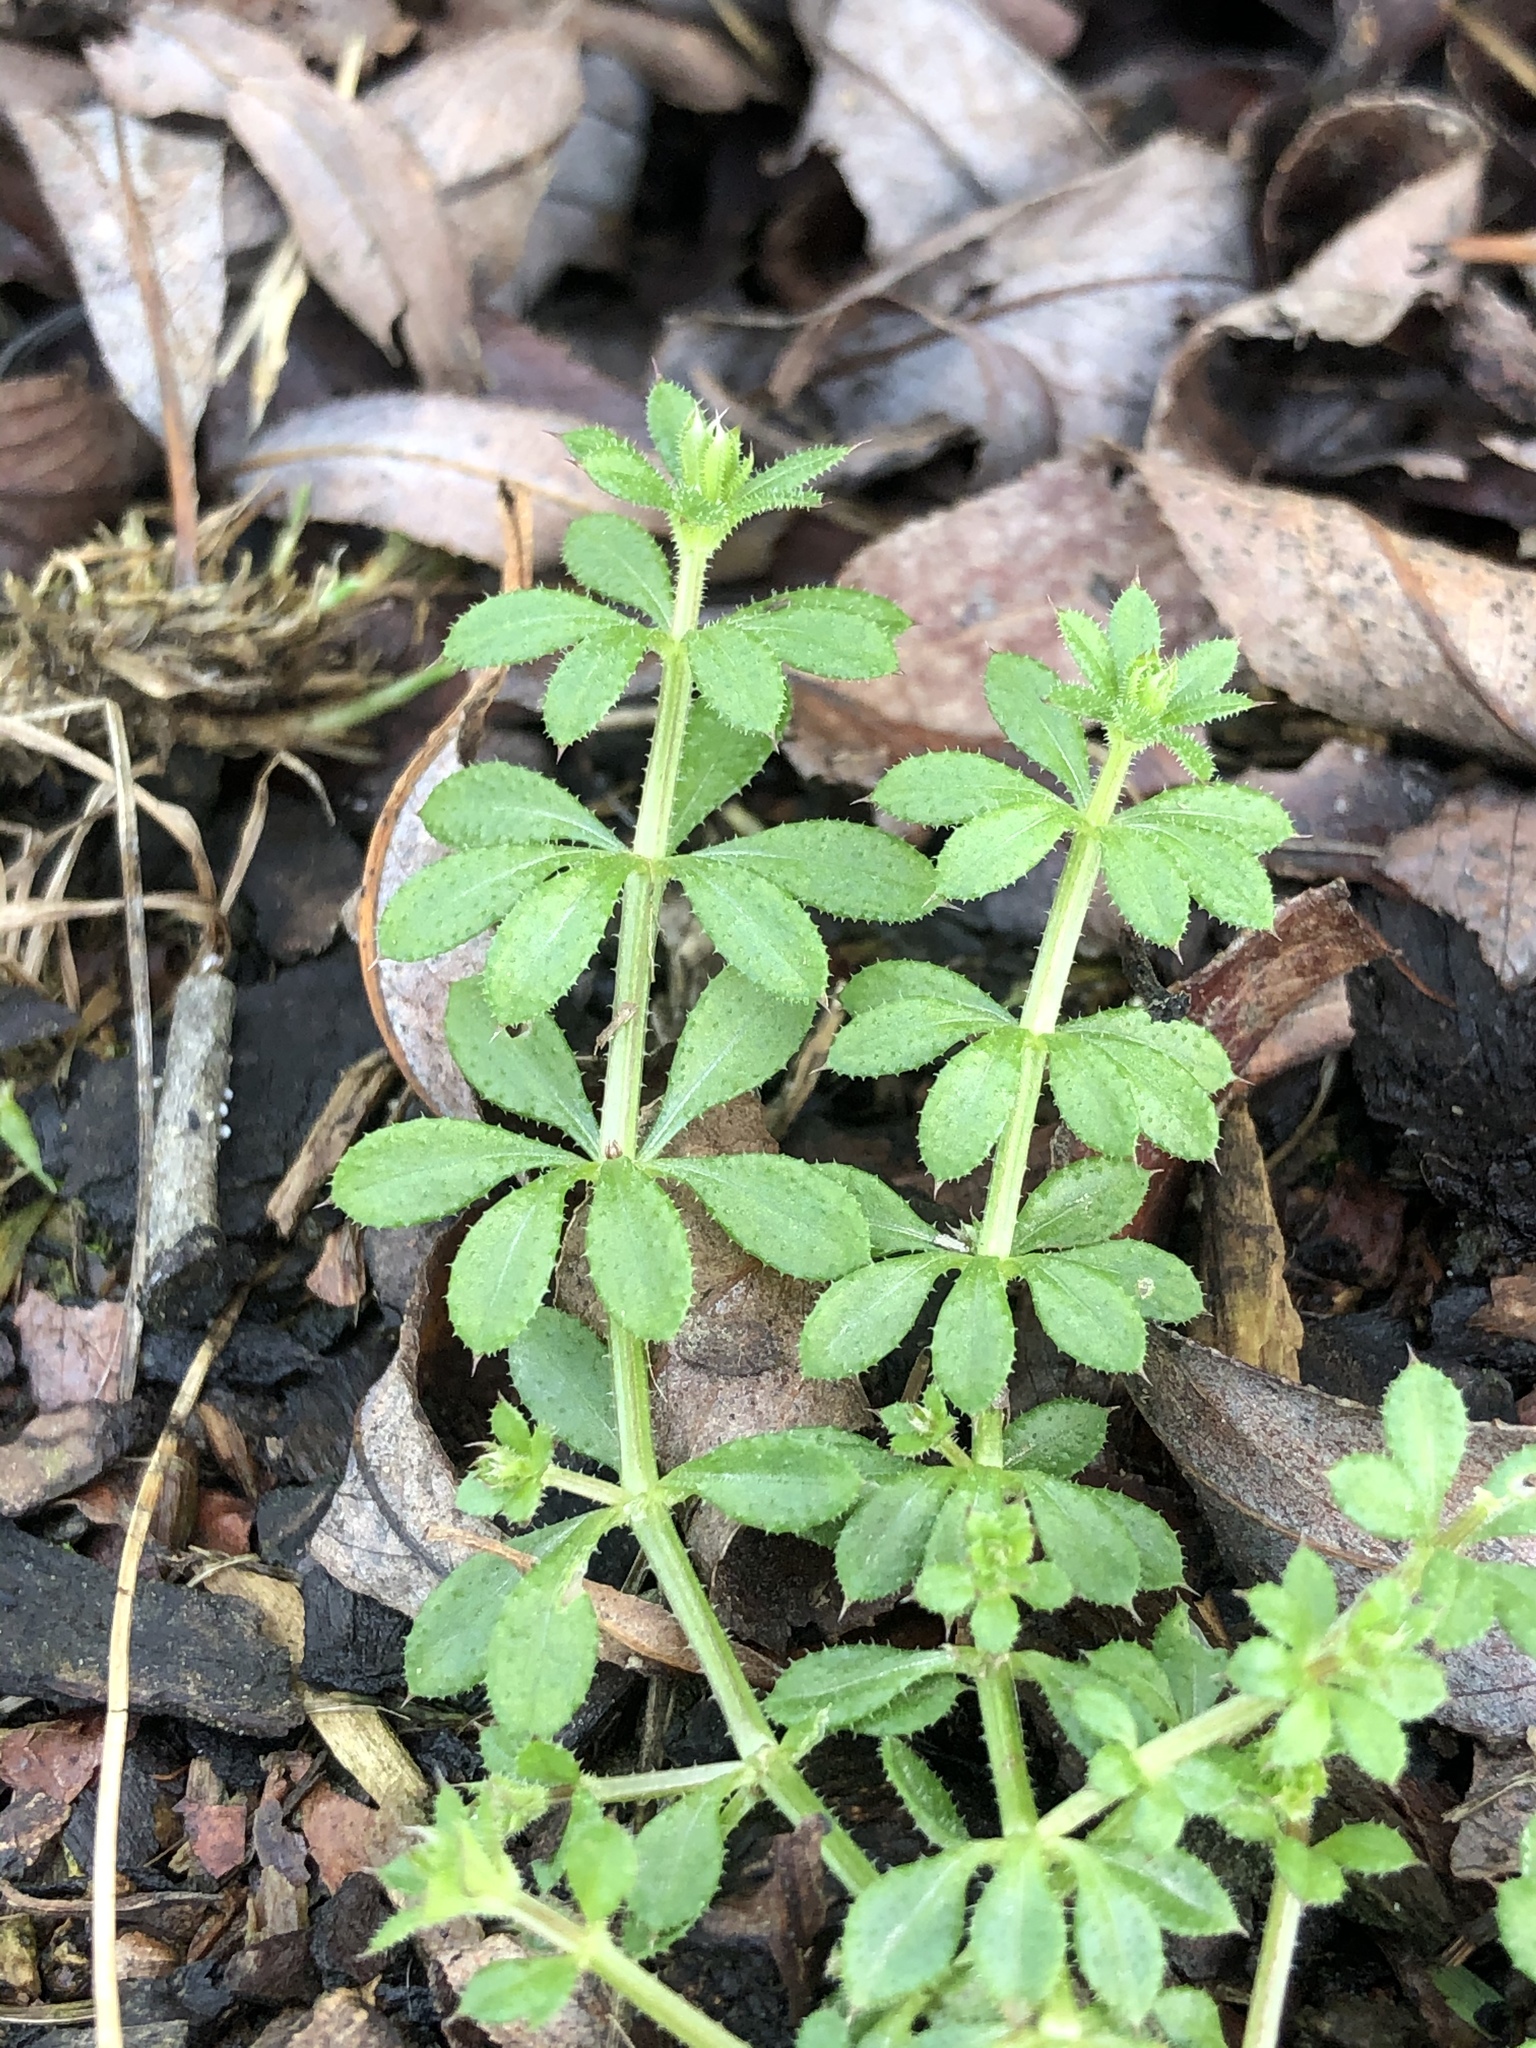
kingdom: Plantae
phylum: Tracheophyta
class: Magnoliopsida
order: Gentianales
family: Rubiaceae
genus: Galium
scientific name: Galium aparine
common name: Cleavers
